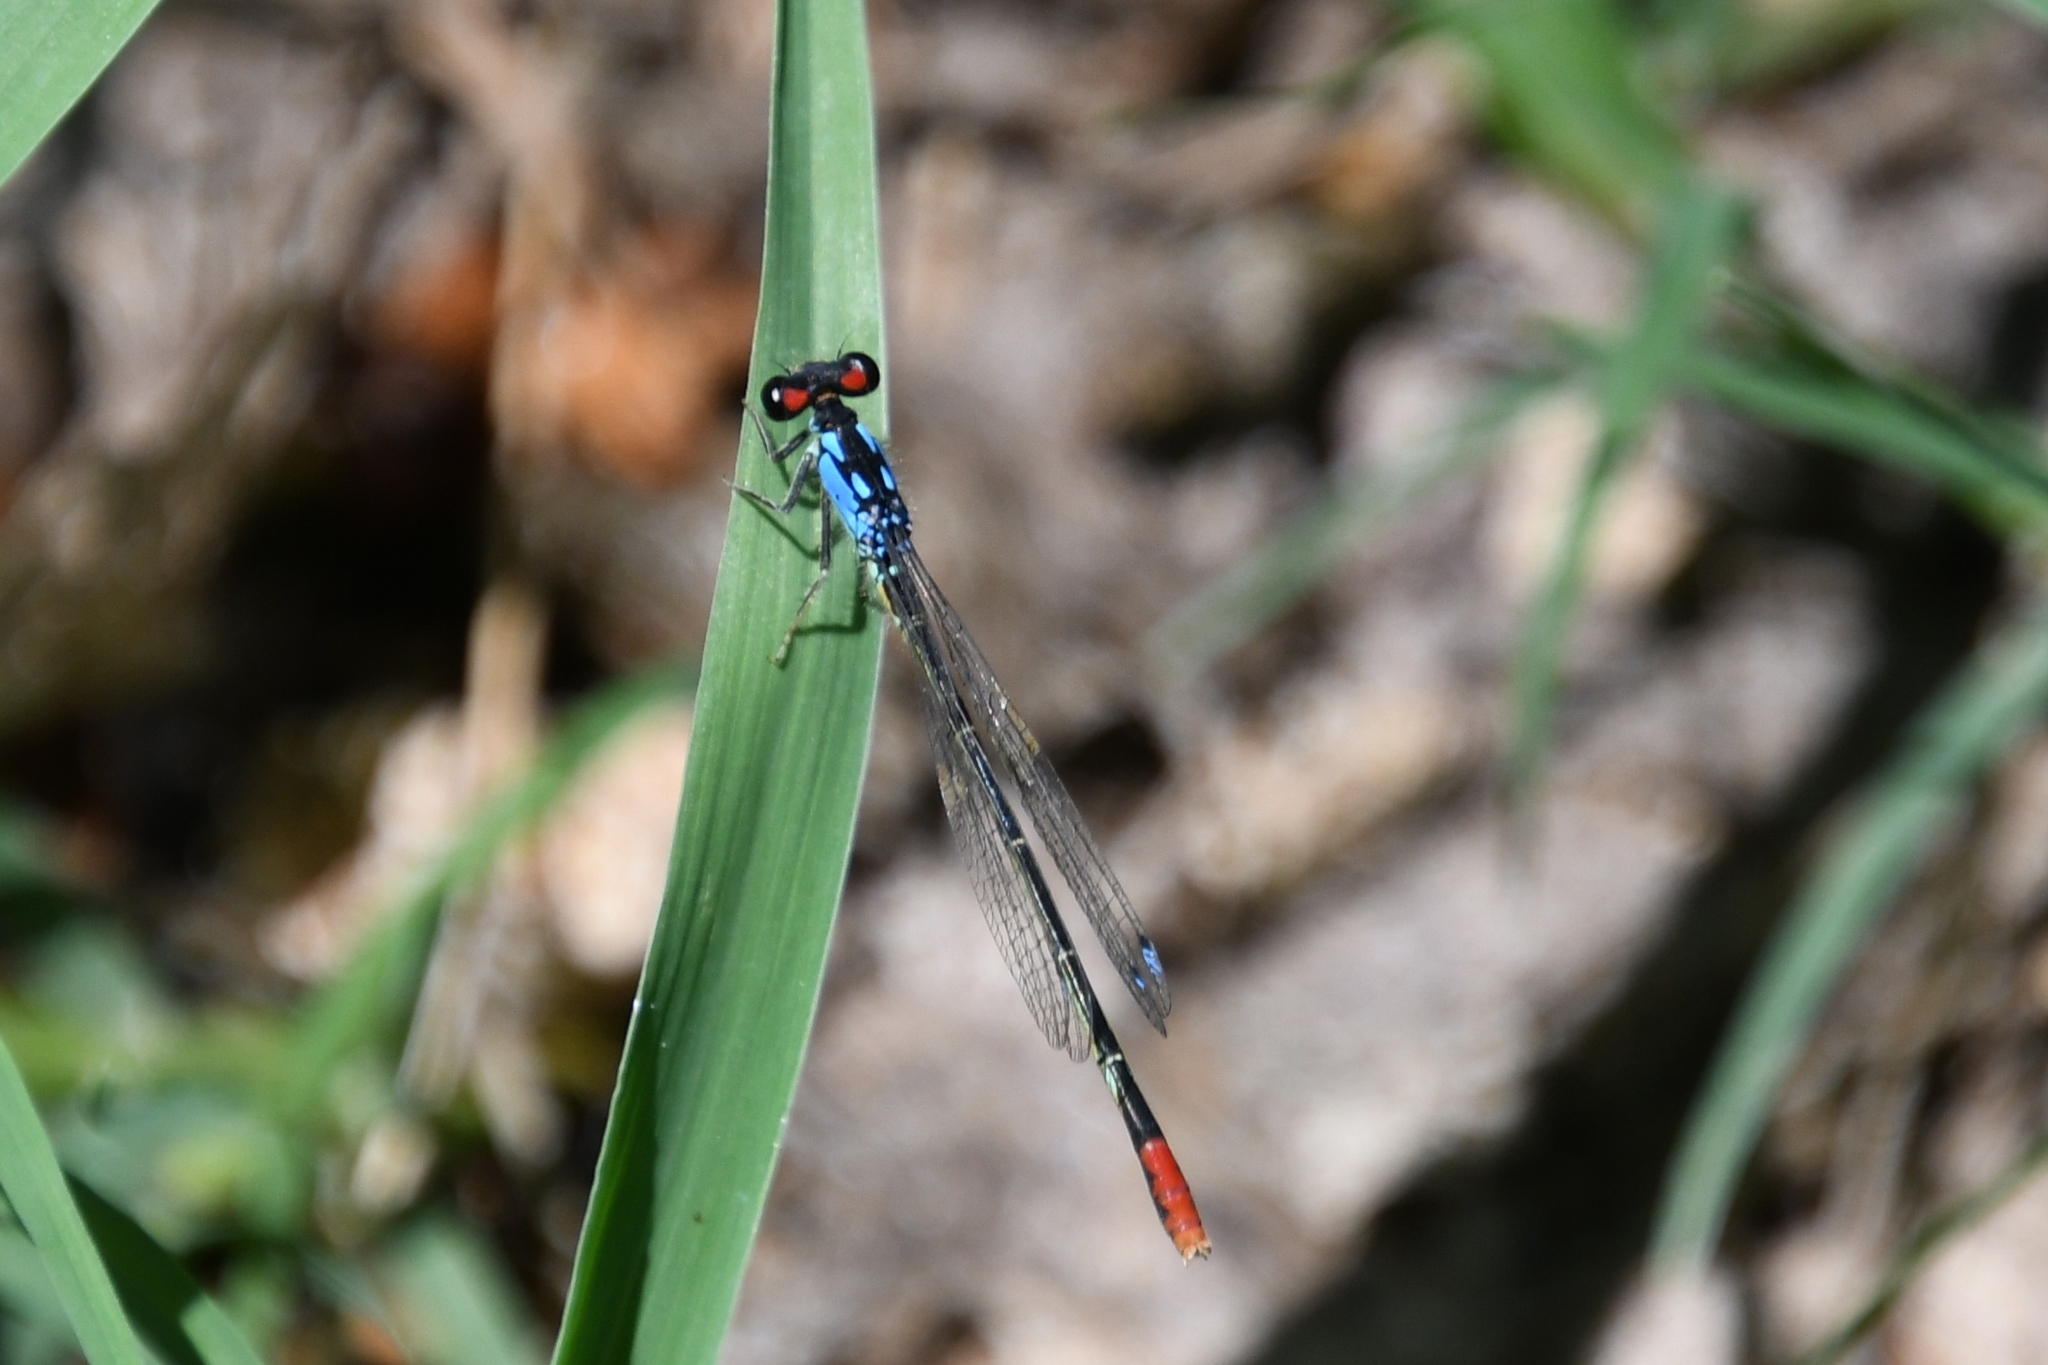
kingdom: Animalia
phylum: Arthropoda
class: Insecta
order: Odonata
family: Coenagrionidae
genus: Hesperagrion
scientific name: Hesperagrion heterodoxum
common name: Painted damsel
